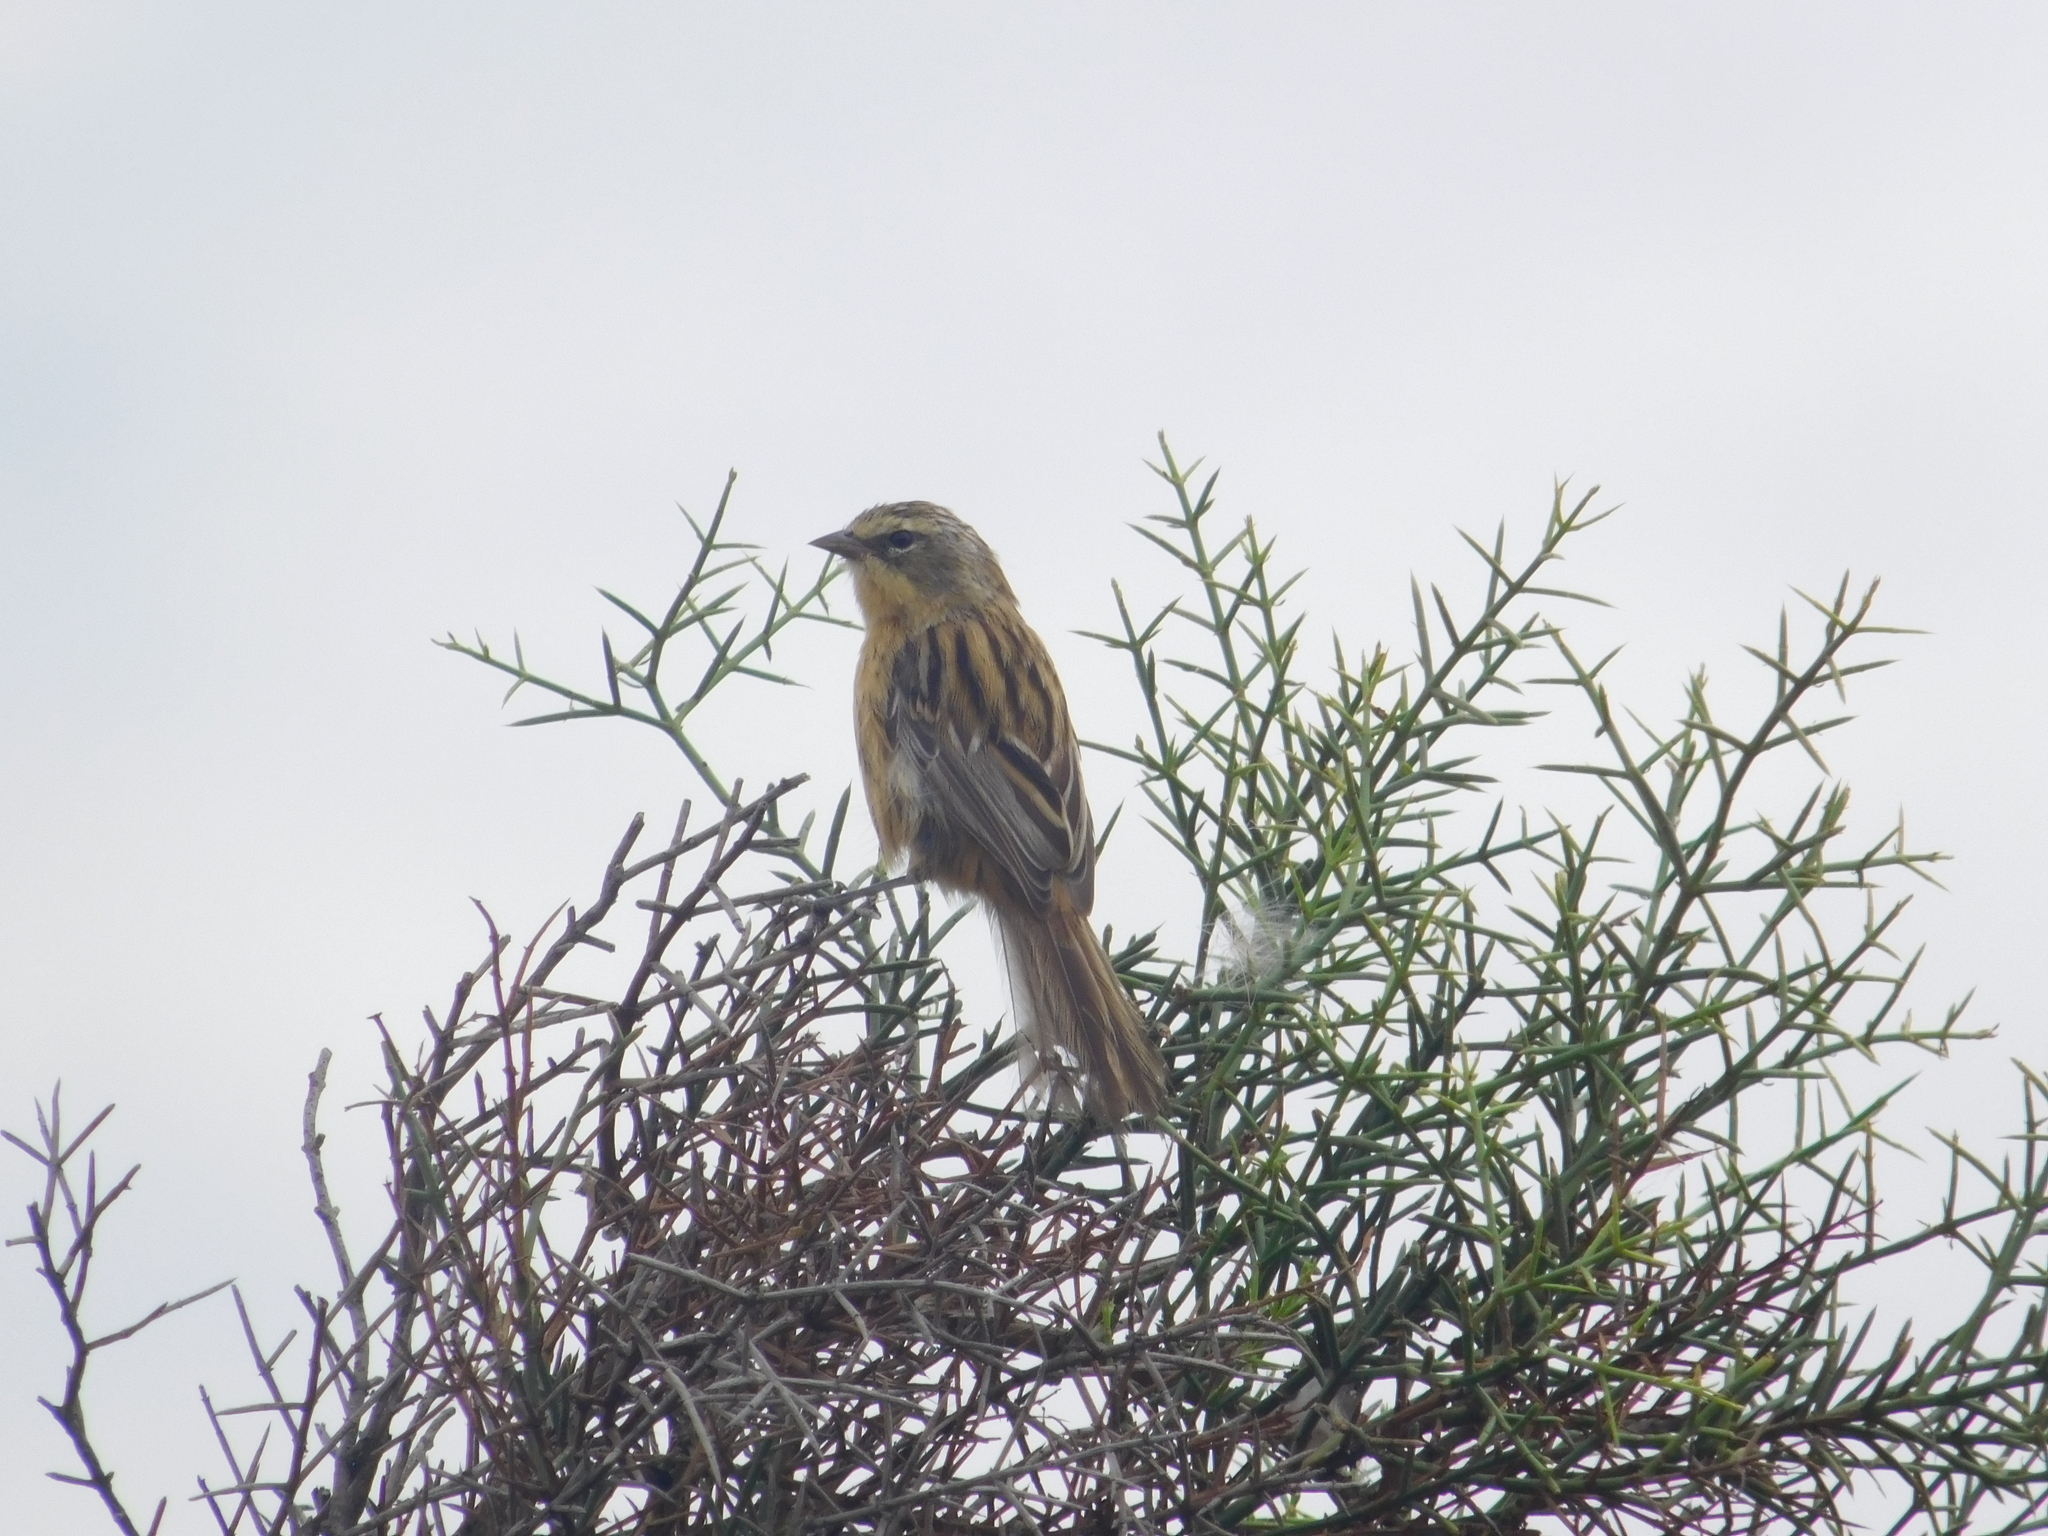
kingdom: Animalia
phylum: Chordata
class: Aves
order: Passeriformes
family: Thraupidae
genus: Donacospiza
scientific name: Donacospiza albifrons
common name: Long-tailed reed finch
